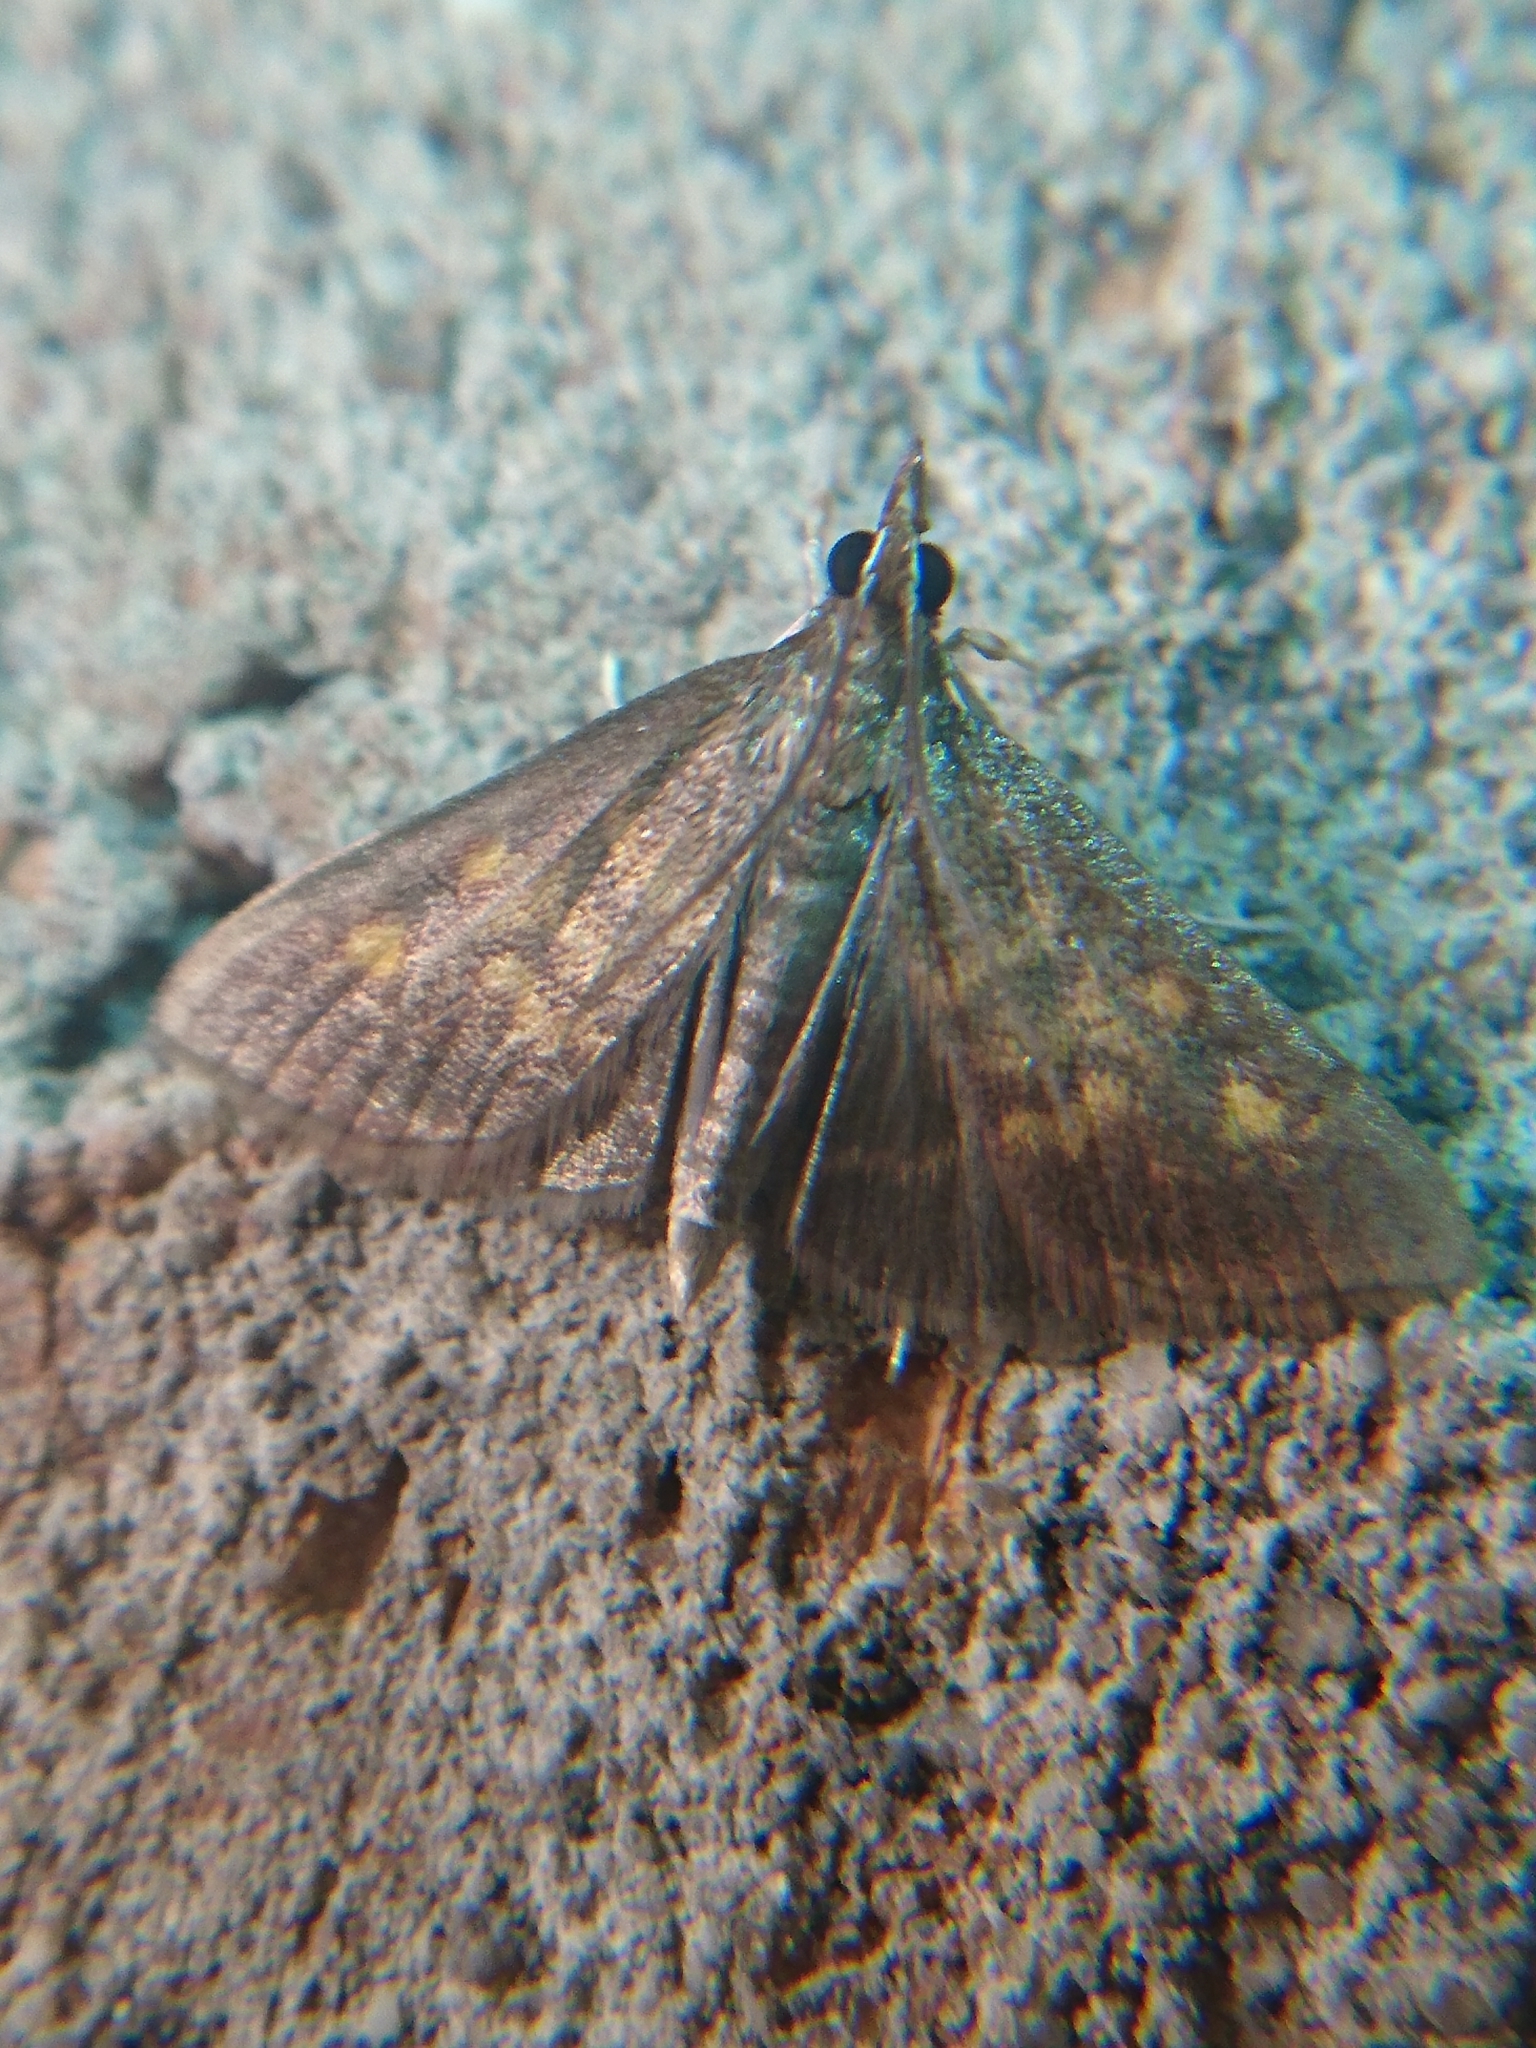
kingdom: Animalia
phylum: Arthropoda
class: Insecta
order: Lepidoptera
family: Crambidae
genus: Pyrausta
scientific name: Pyrausta acrionalis
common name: Mint-loving pyrausta moth
